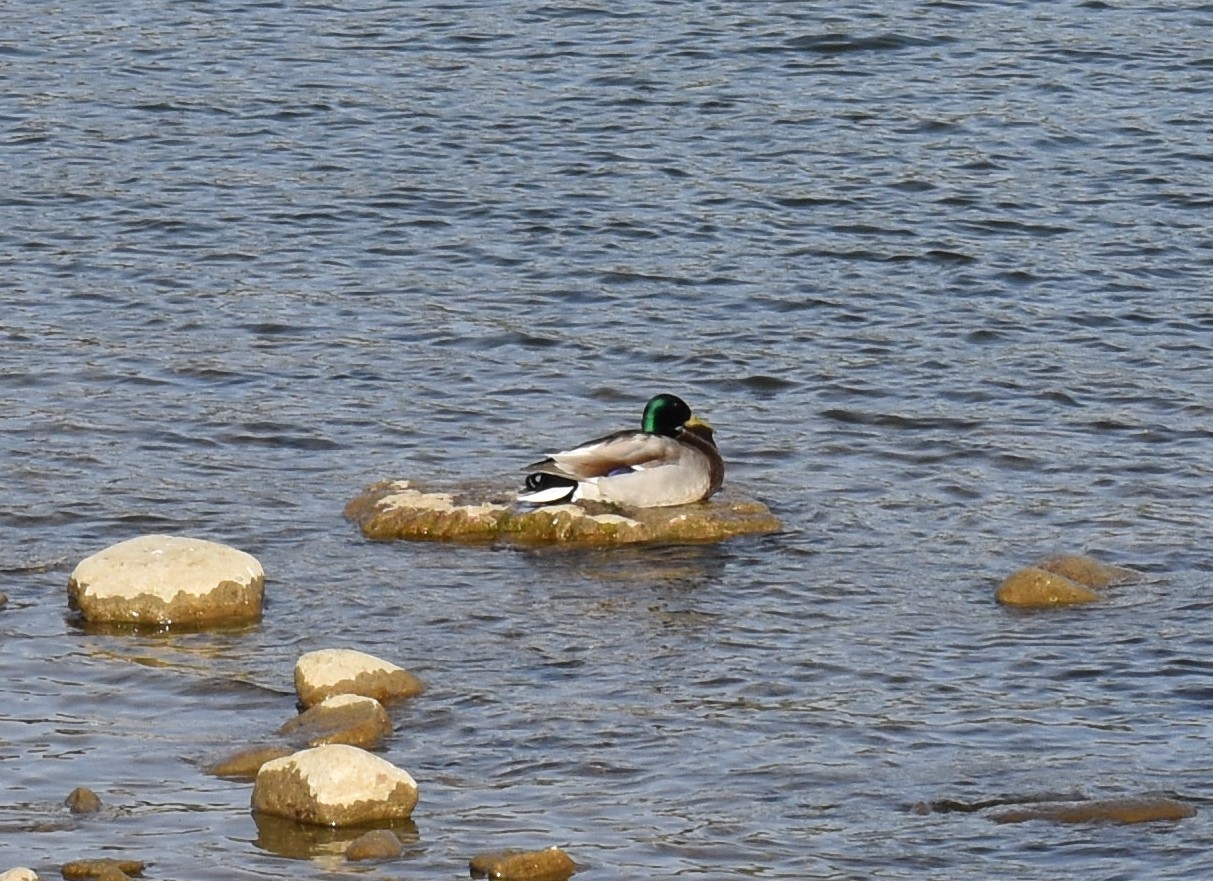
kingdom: Animalia
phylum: Chordata
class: Aves
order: Anseriformes
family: Anatidae
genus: Anas
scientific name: Anas platyrhynchos
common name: Mallard
